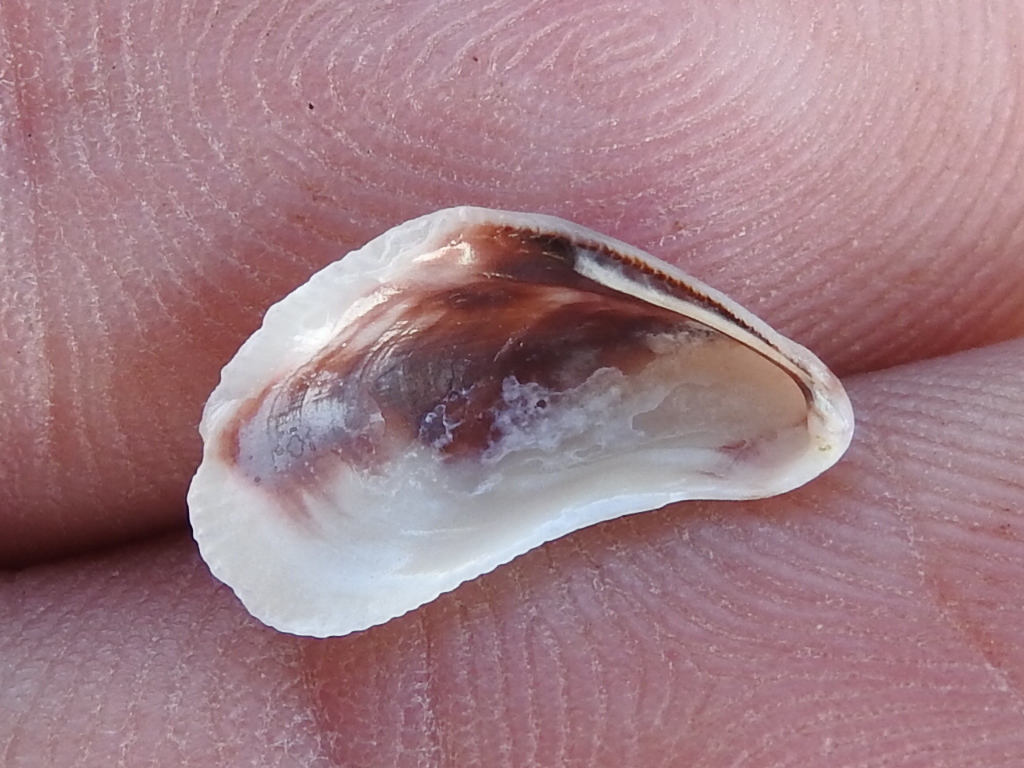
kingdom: Animalia
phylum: Mollusca
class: Bivalvia
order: Mytilida
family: Mytilidae
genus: Ischadium
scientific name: Ischadium recurvum
